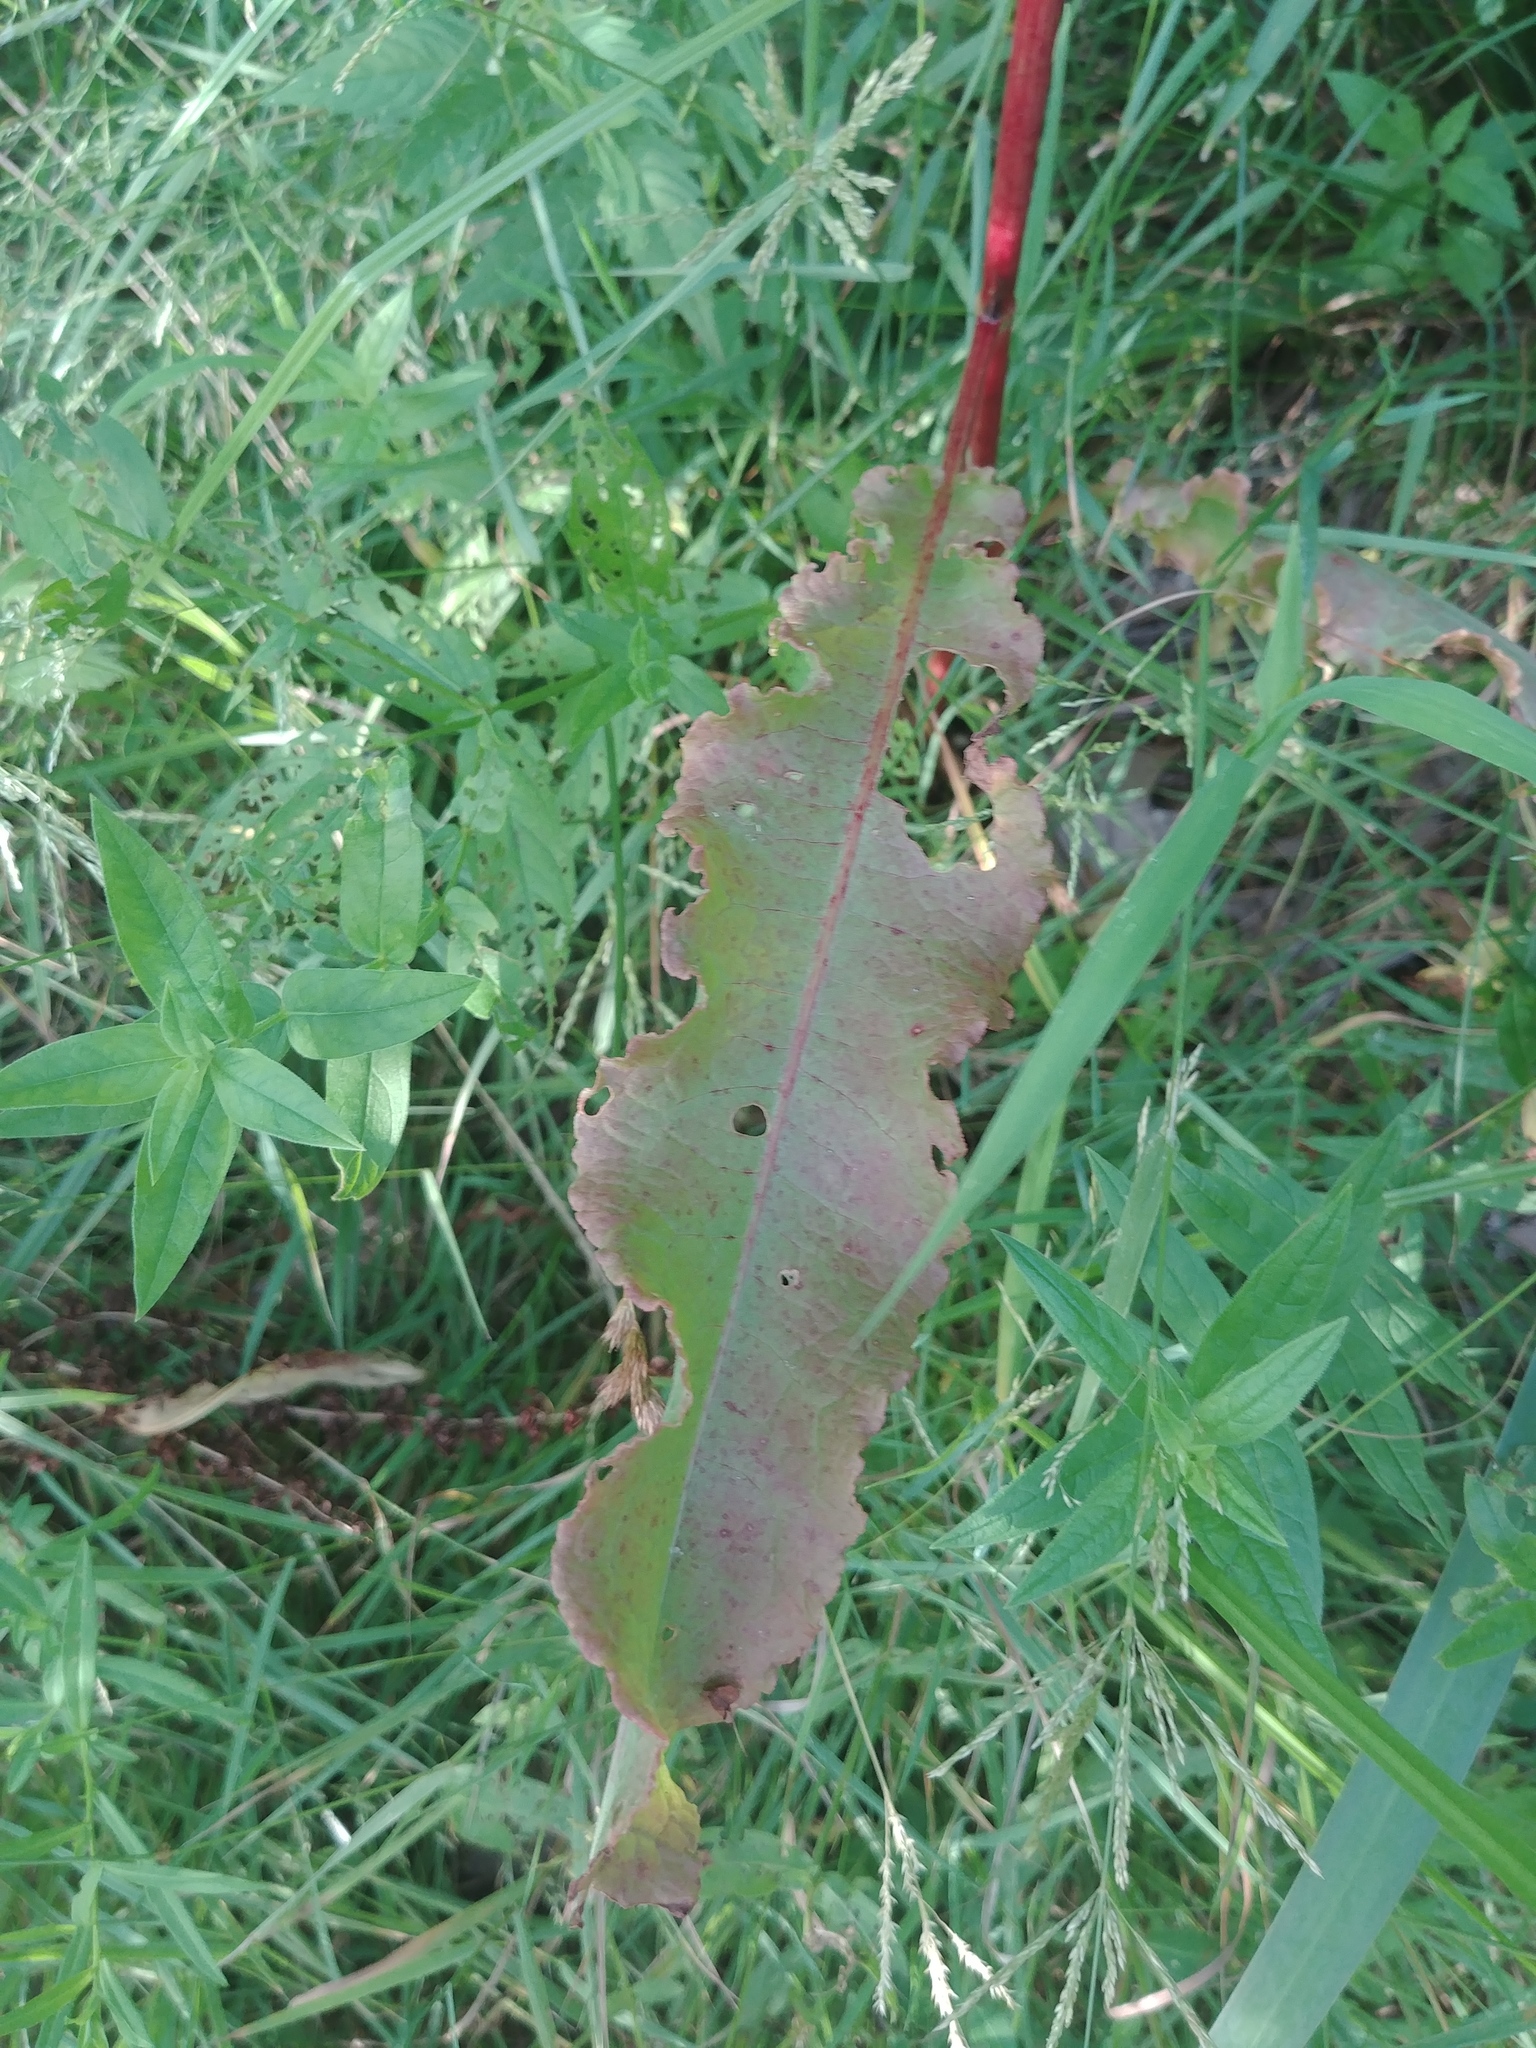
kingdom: Plantae
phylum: Tracheophyta
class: Magnoliopsida
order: Caryophyllales
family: Polygonaceae
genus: Rumex
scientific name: Rumex crispus
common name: Curled dock
